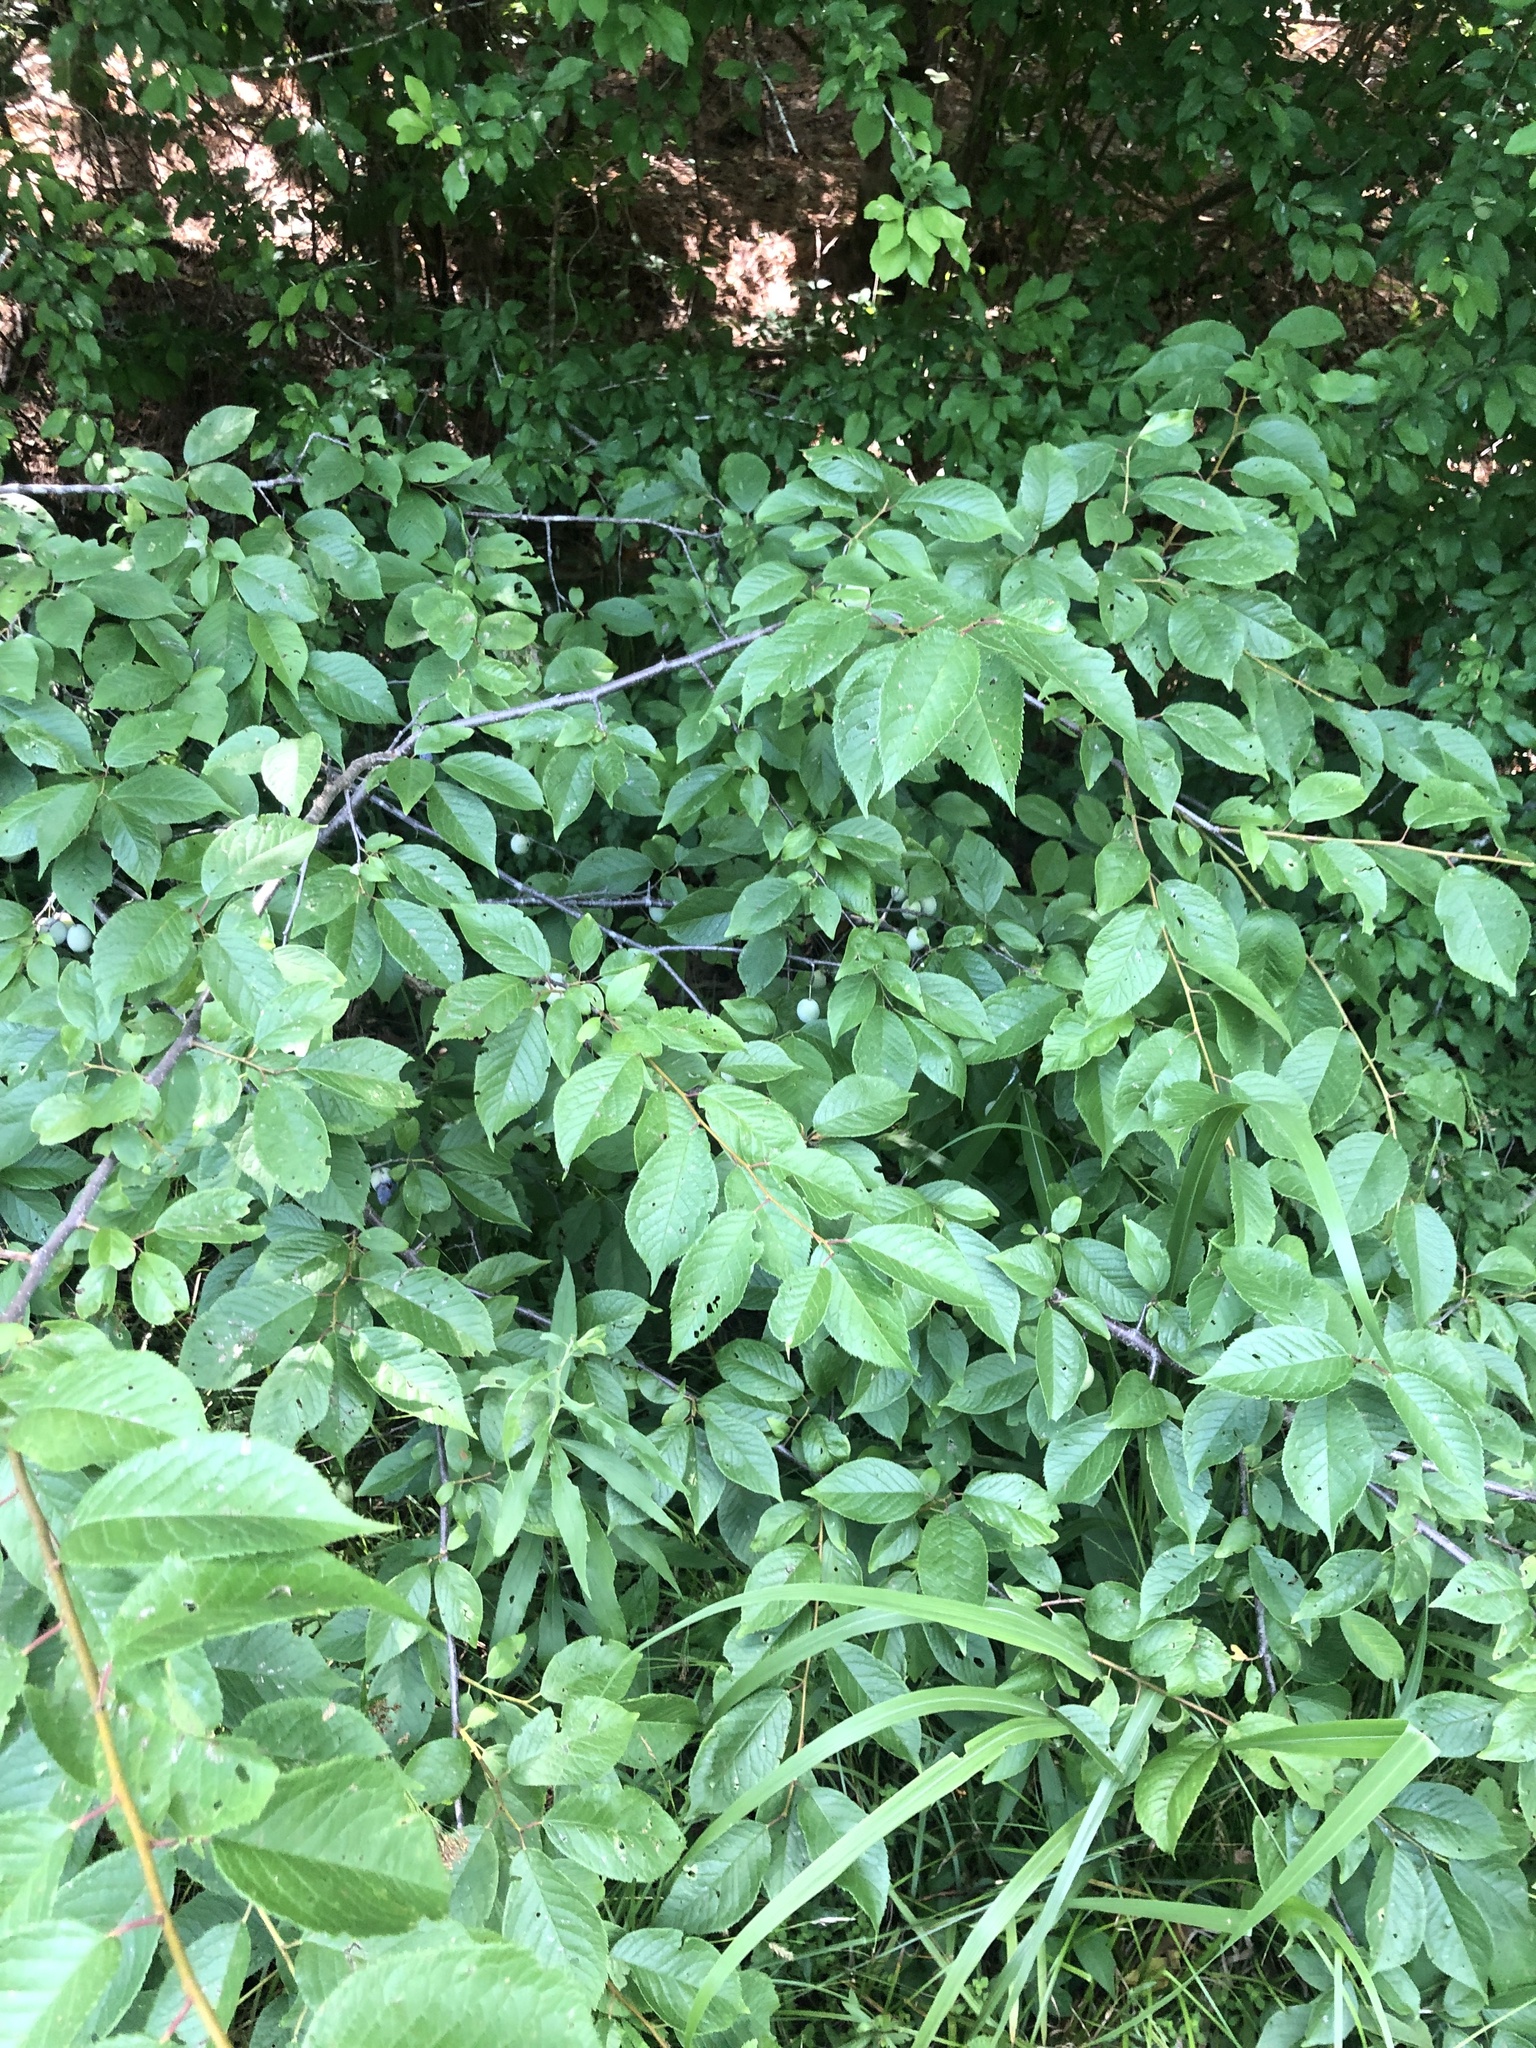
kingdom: Plantae
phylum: Tracheophyta
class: Magnoliopsida
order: Rosales
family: Rosaceae
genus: Prunus
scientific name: Prunus mexicana
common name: Mexican plum
